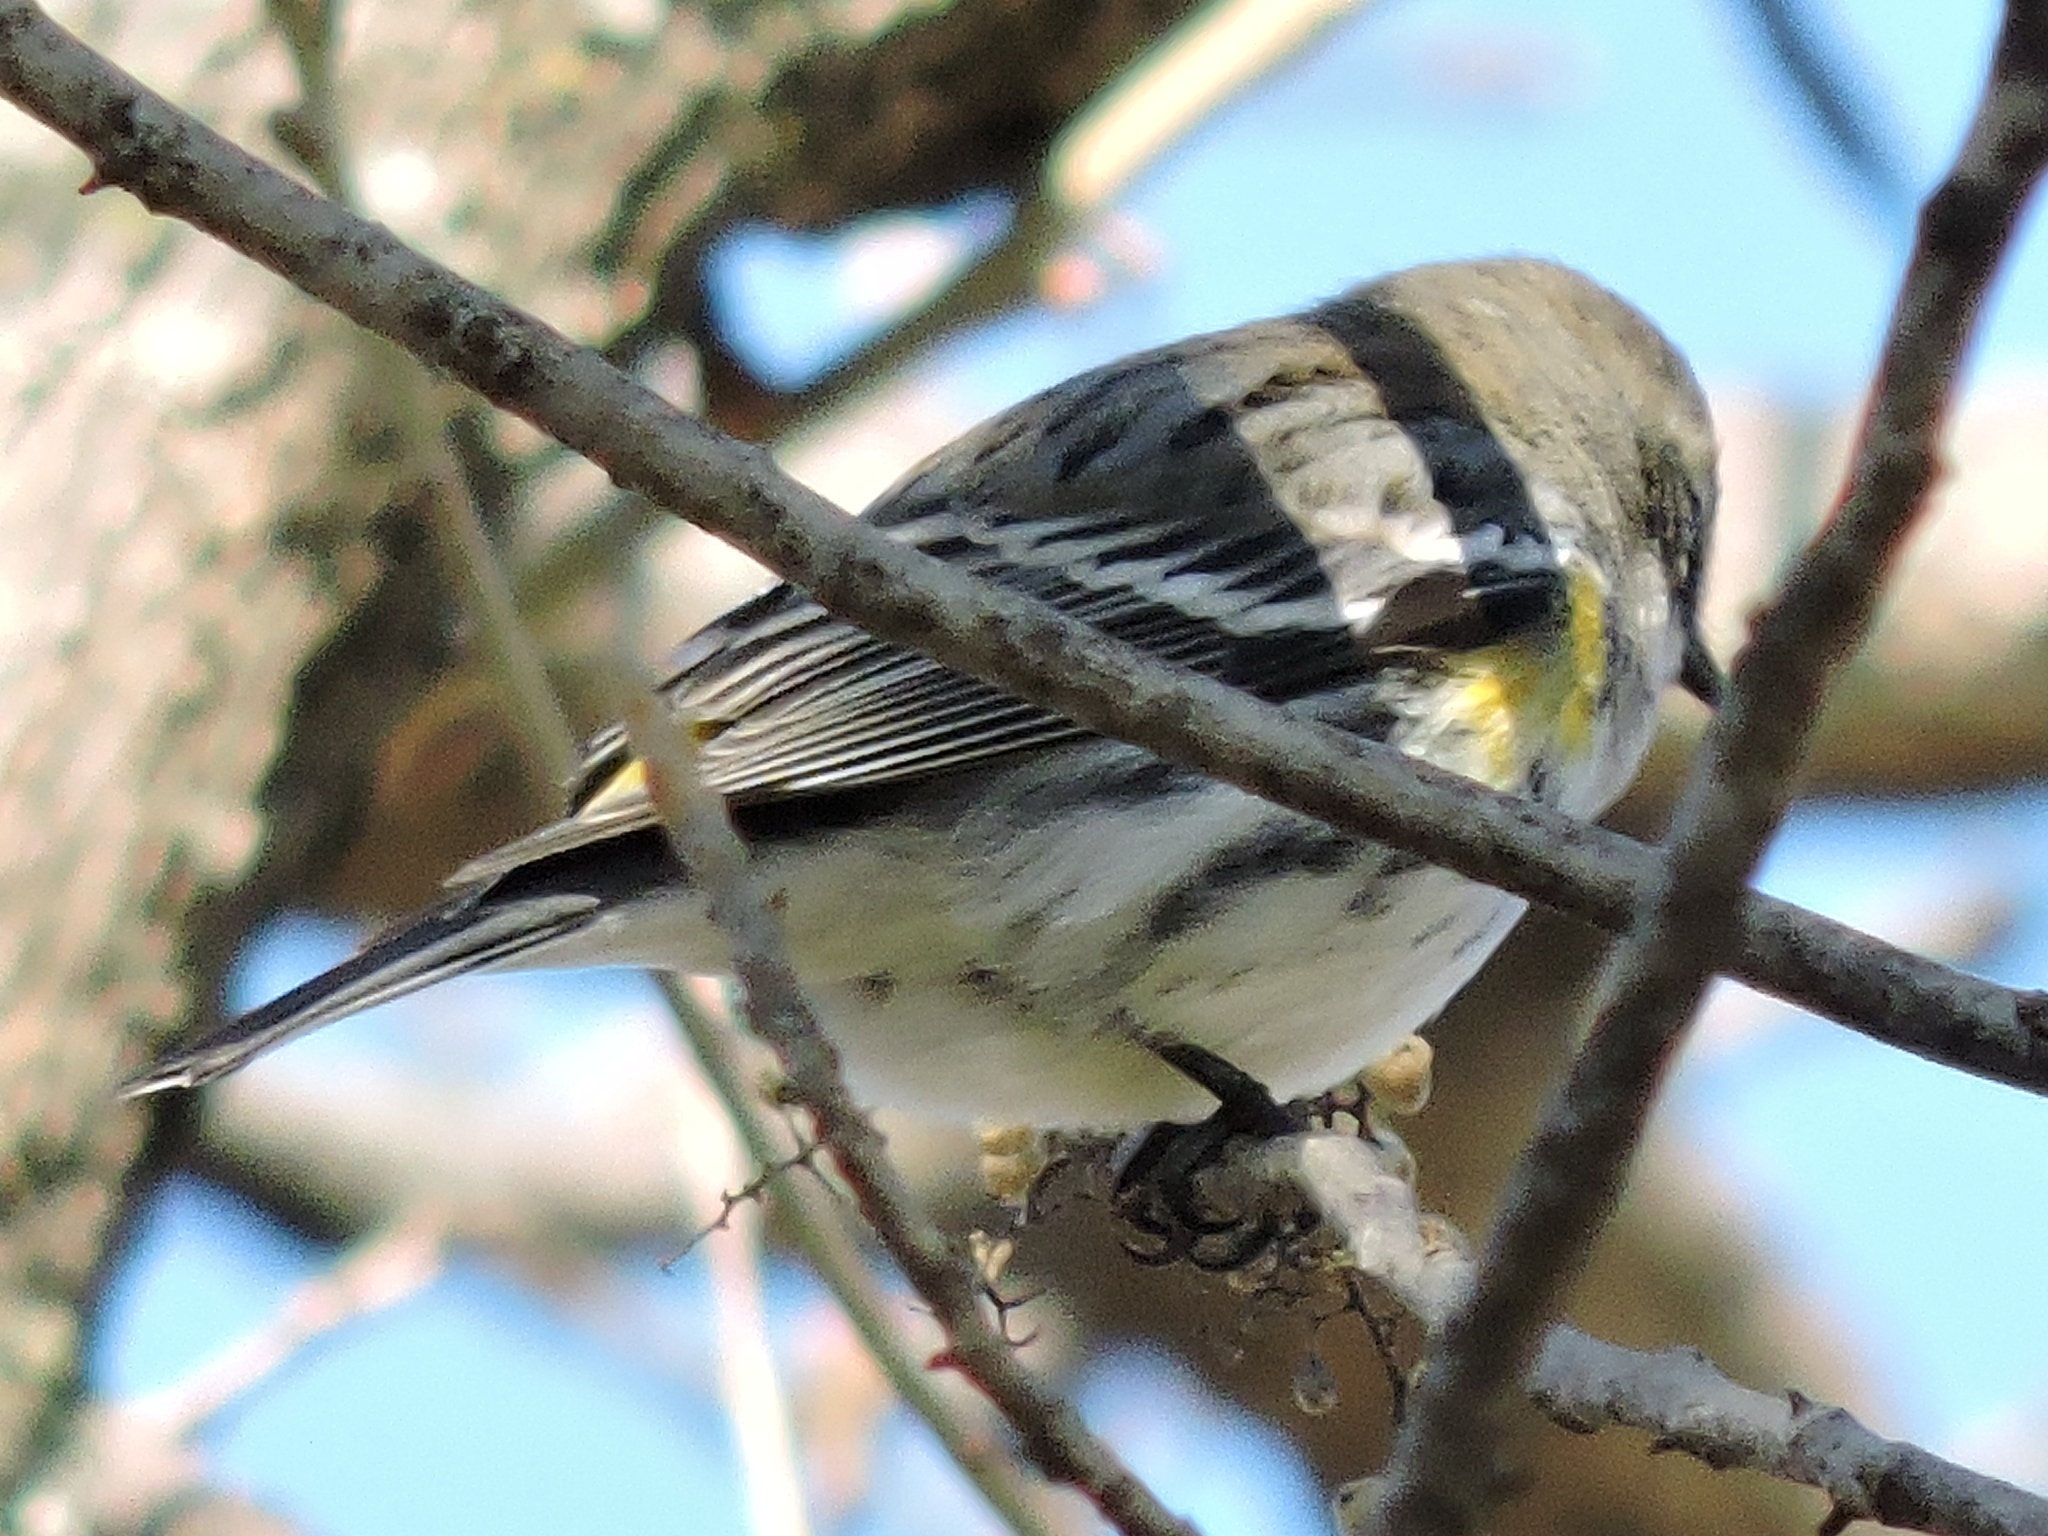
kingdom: Animalia
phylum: Chordata
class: Aves
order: Passeriformes
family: Parulidae
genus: Setophaga
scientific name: Setophaga coronata
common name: Myrtle warbler
